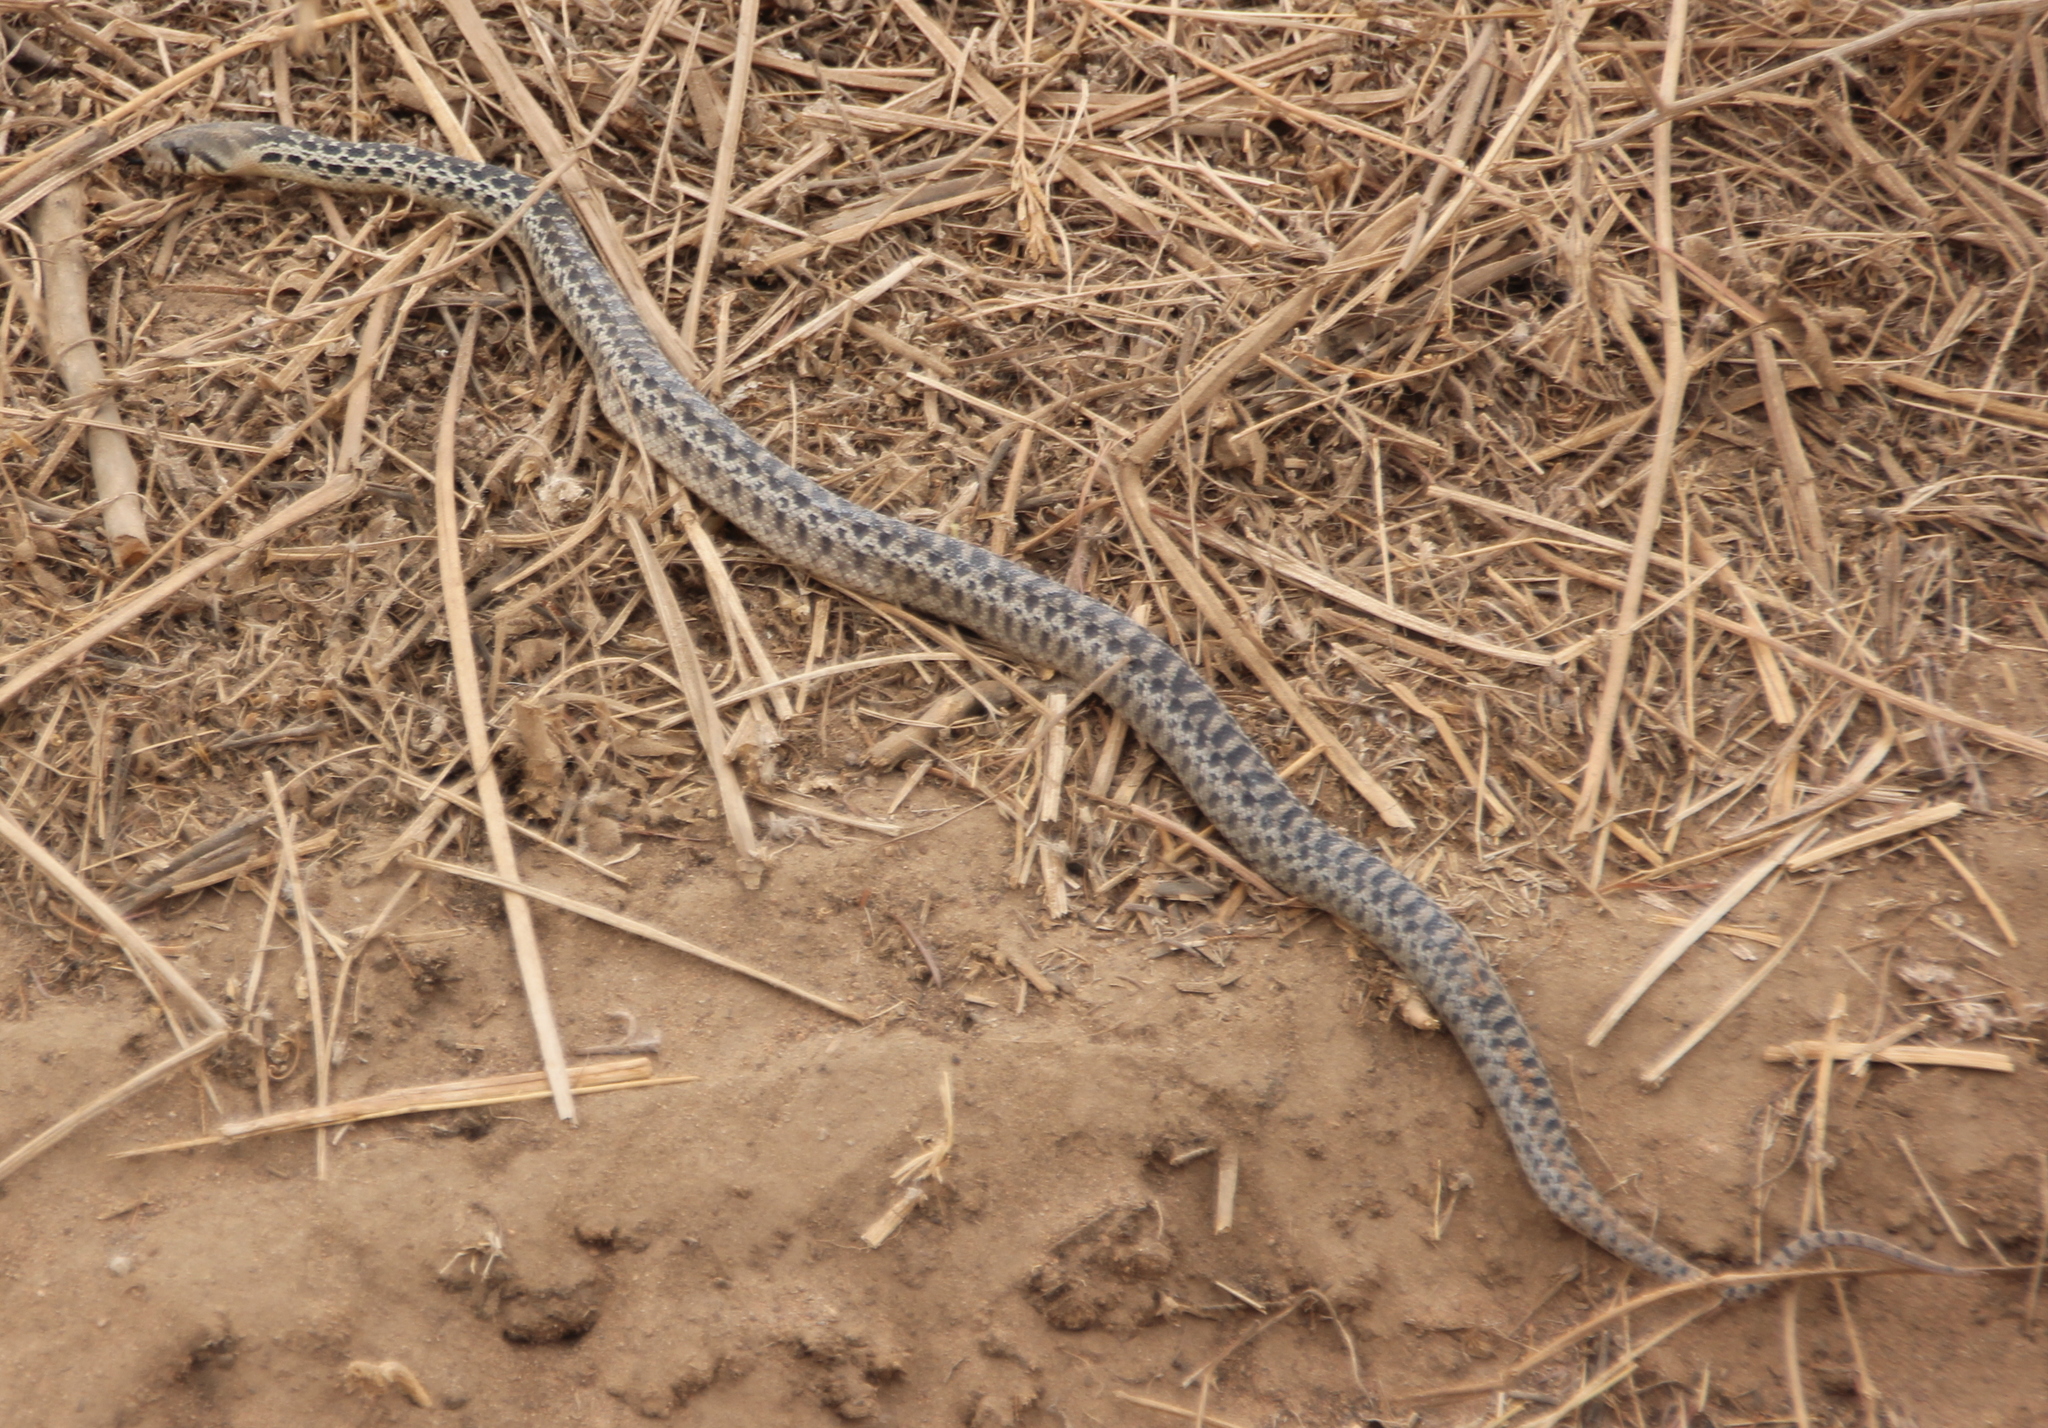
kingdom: Animalia
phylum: Chordata
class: Squamata
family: Colubridae
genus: Pituophis
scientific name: Pituophis catenifer
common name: Gopher snake
